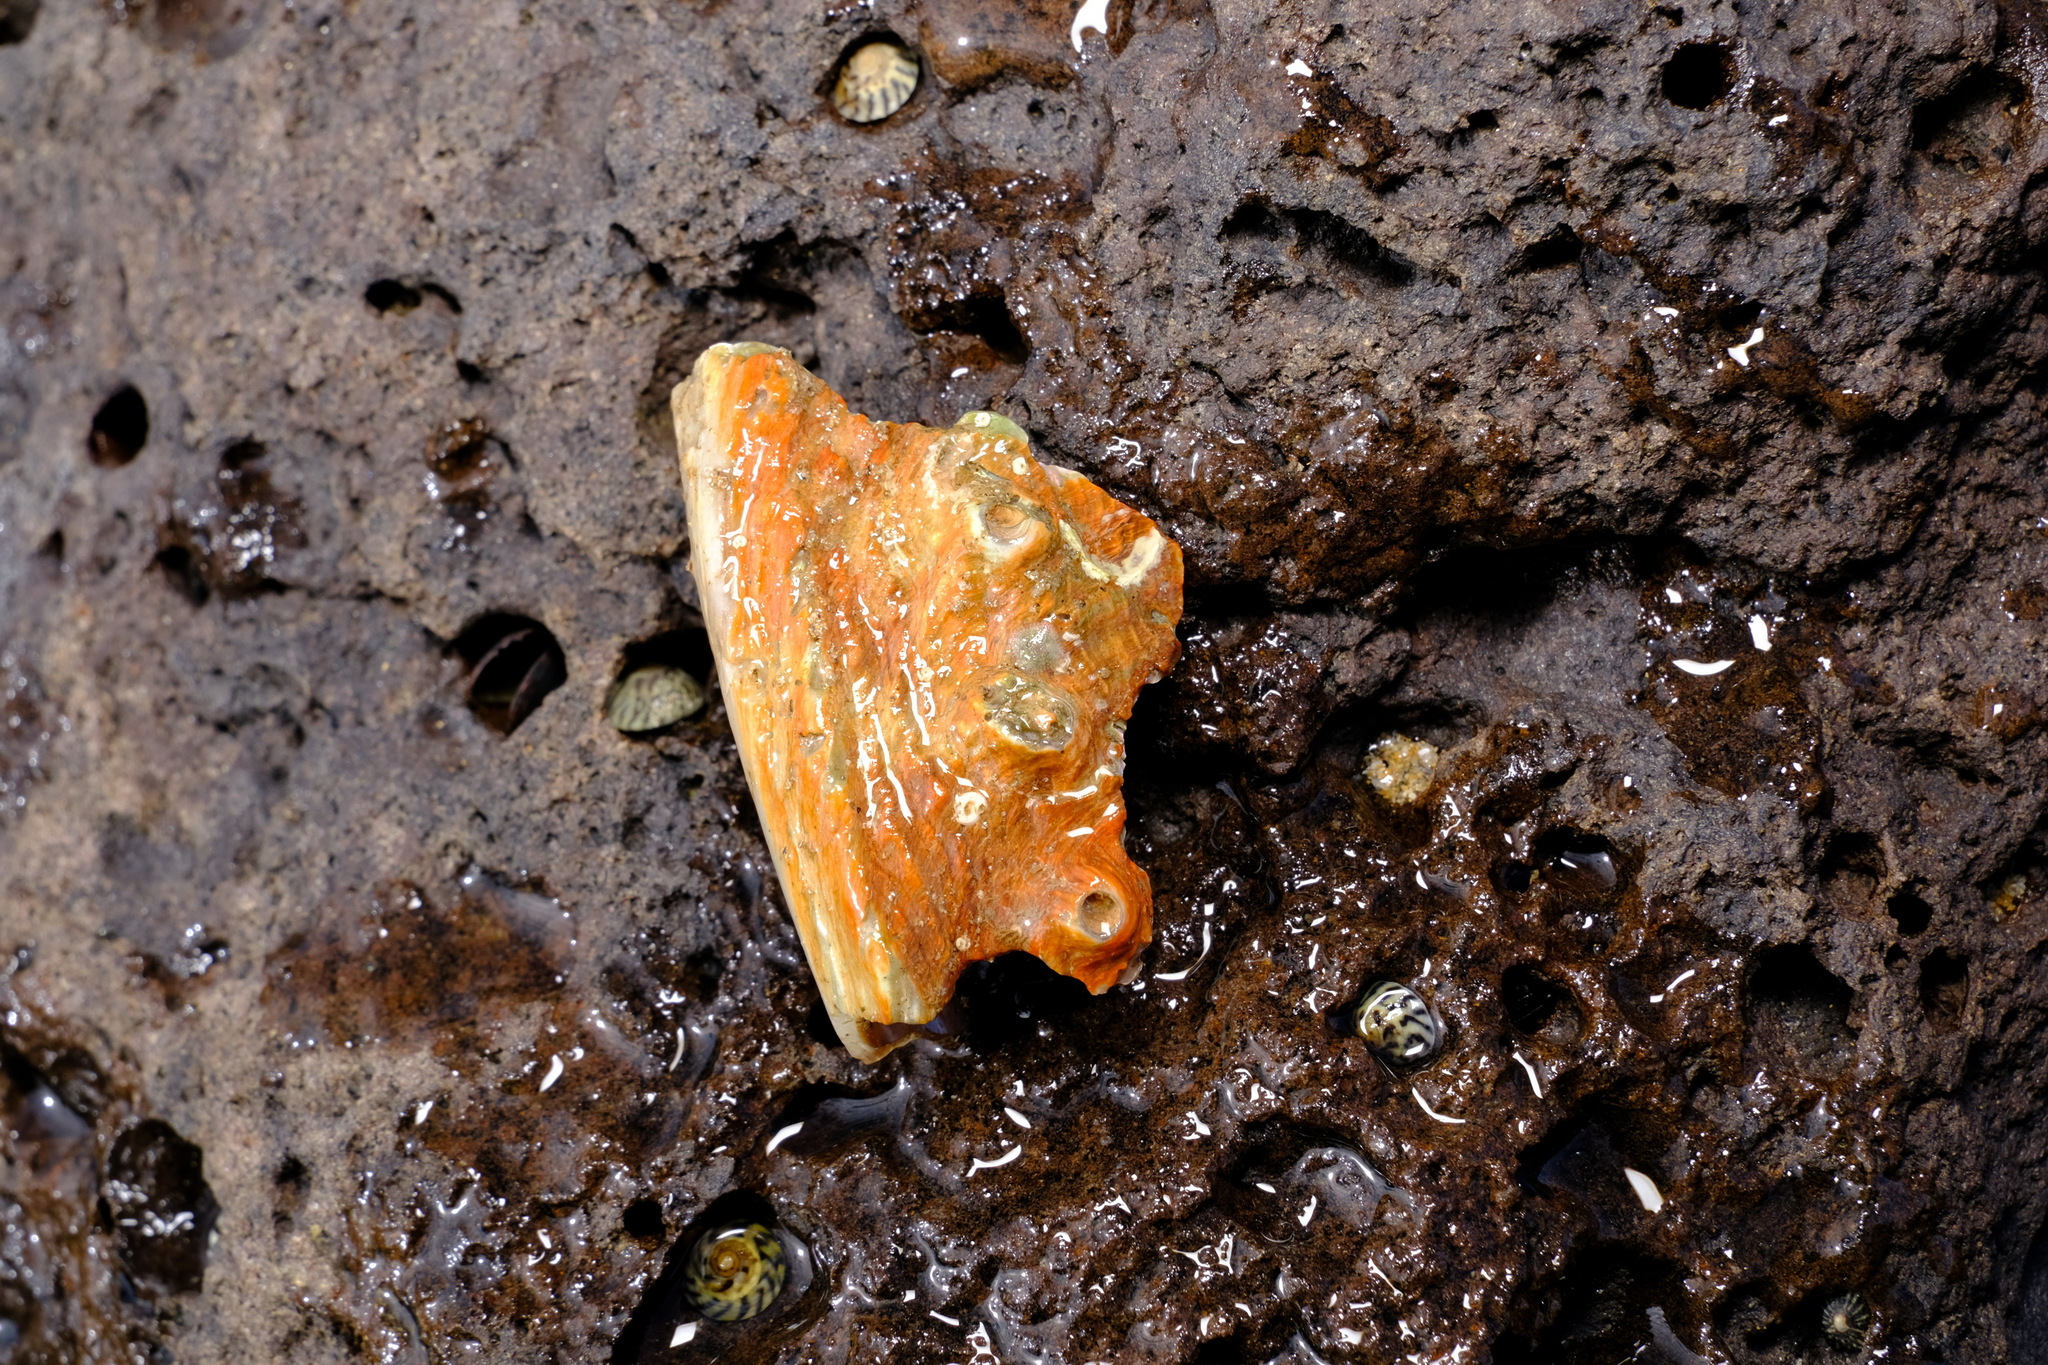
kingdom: Animalia
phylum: Mollusca
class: Gastropoda
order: Lepetellida
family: Haliotidae
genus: Haliotis
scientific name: Haliotis rubra
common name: Blacklip abalone
